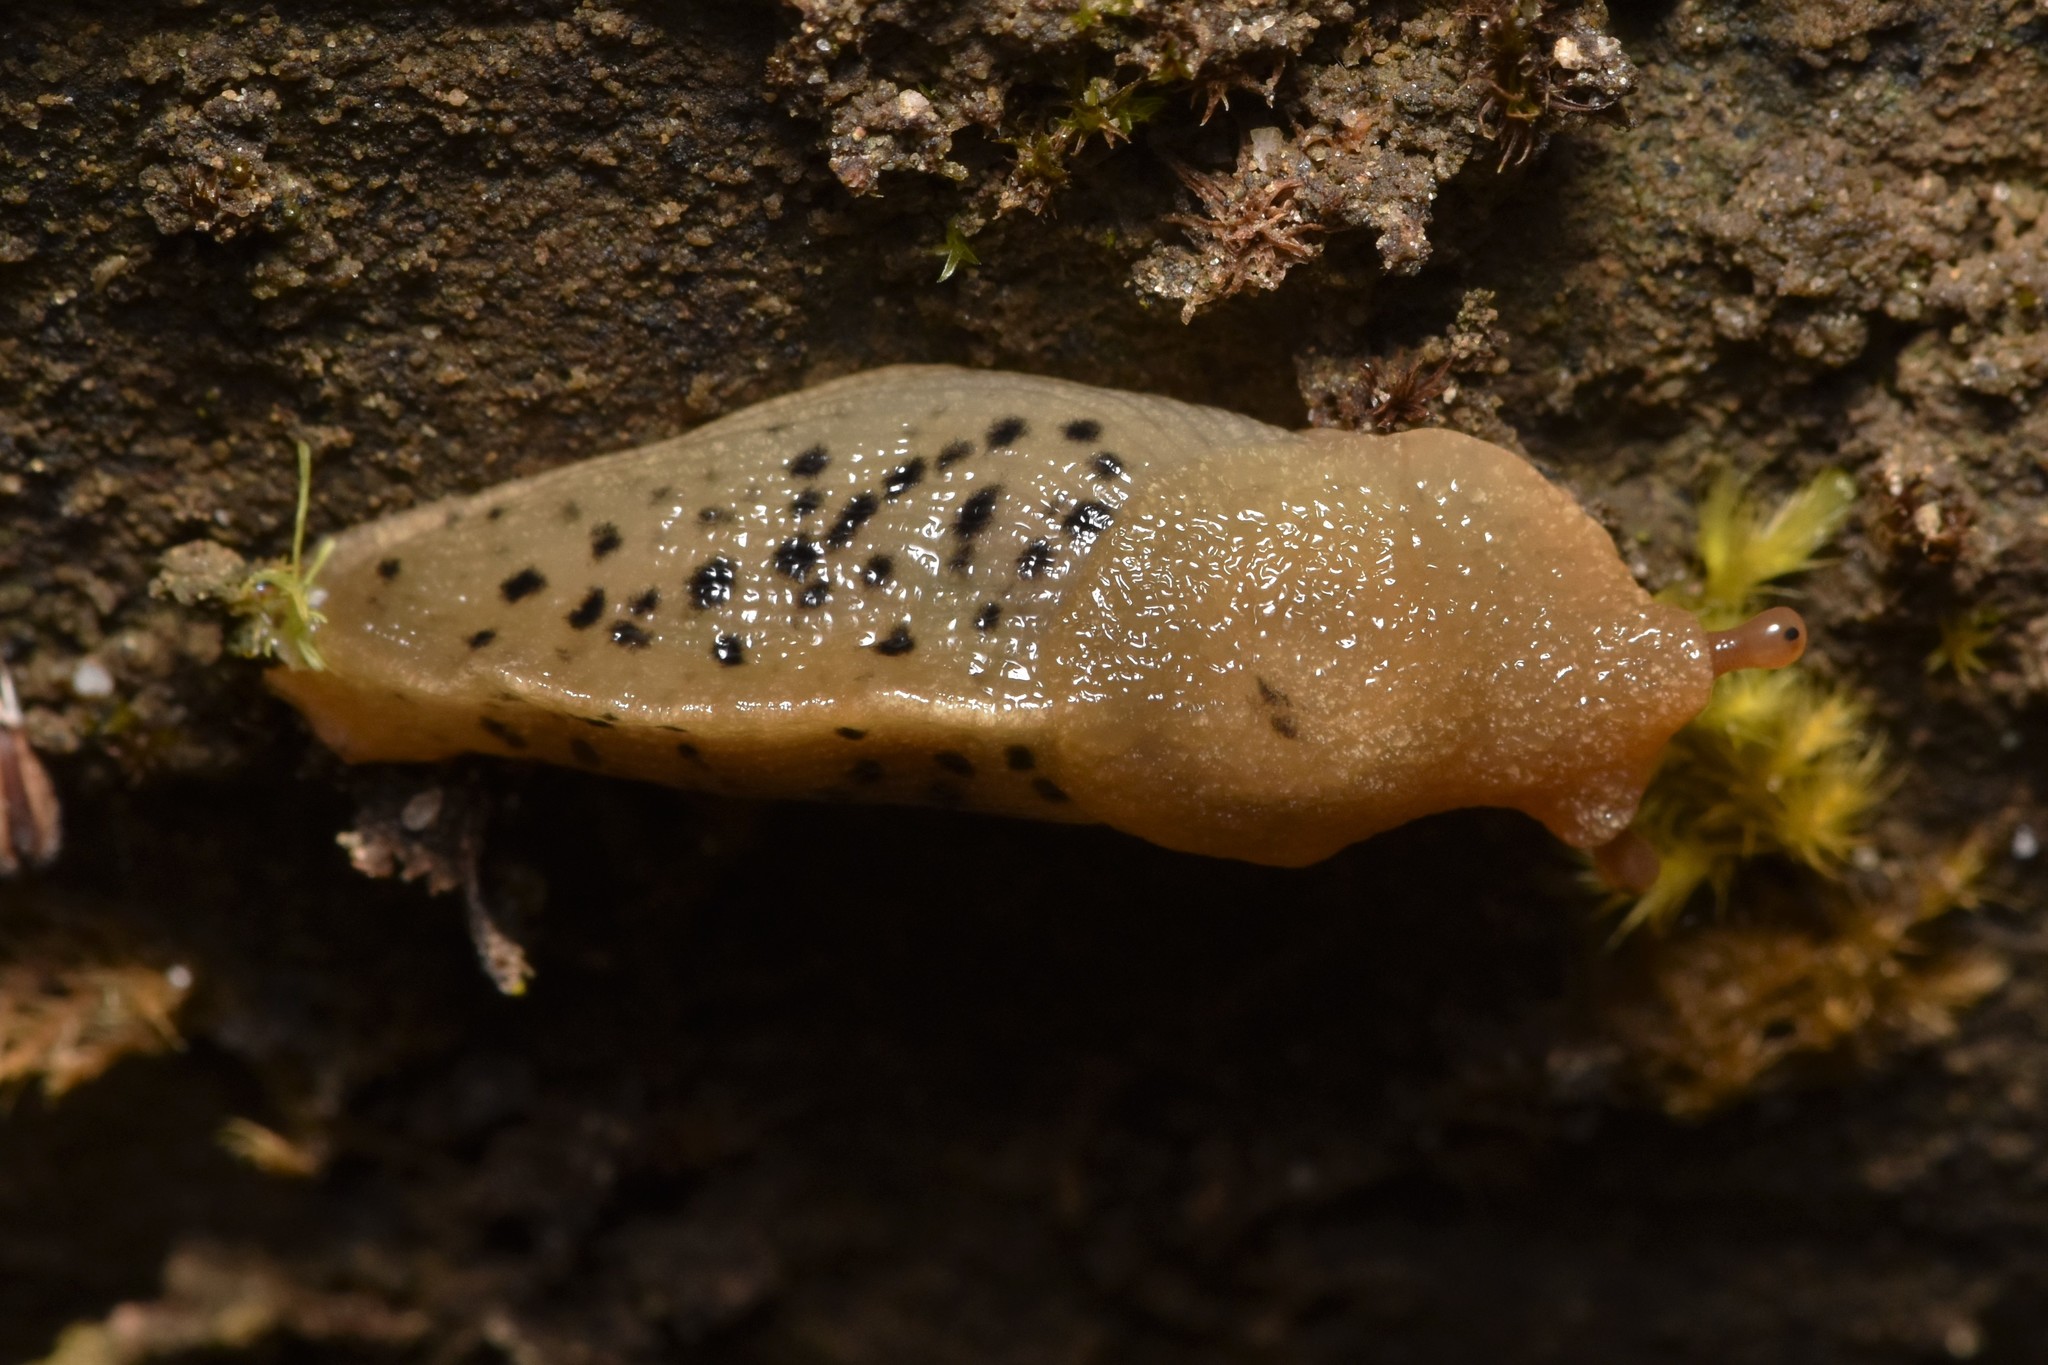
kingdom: Animalia
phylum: Mollusca
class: Gastropoda
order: Stylommatophora
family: Ariolimacidae
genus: Ariolimax
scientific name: Ariolimax columbianus
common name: Pacific banana slug
